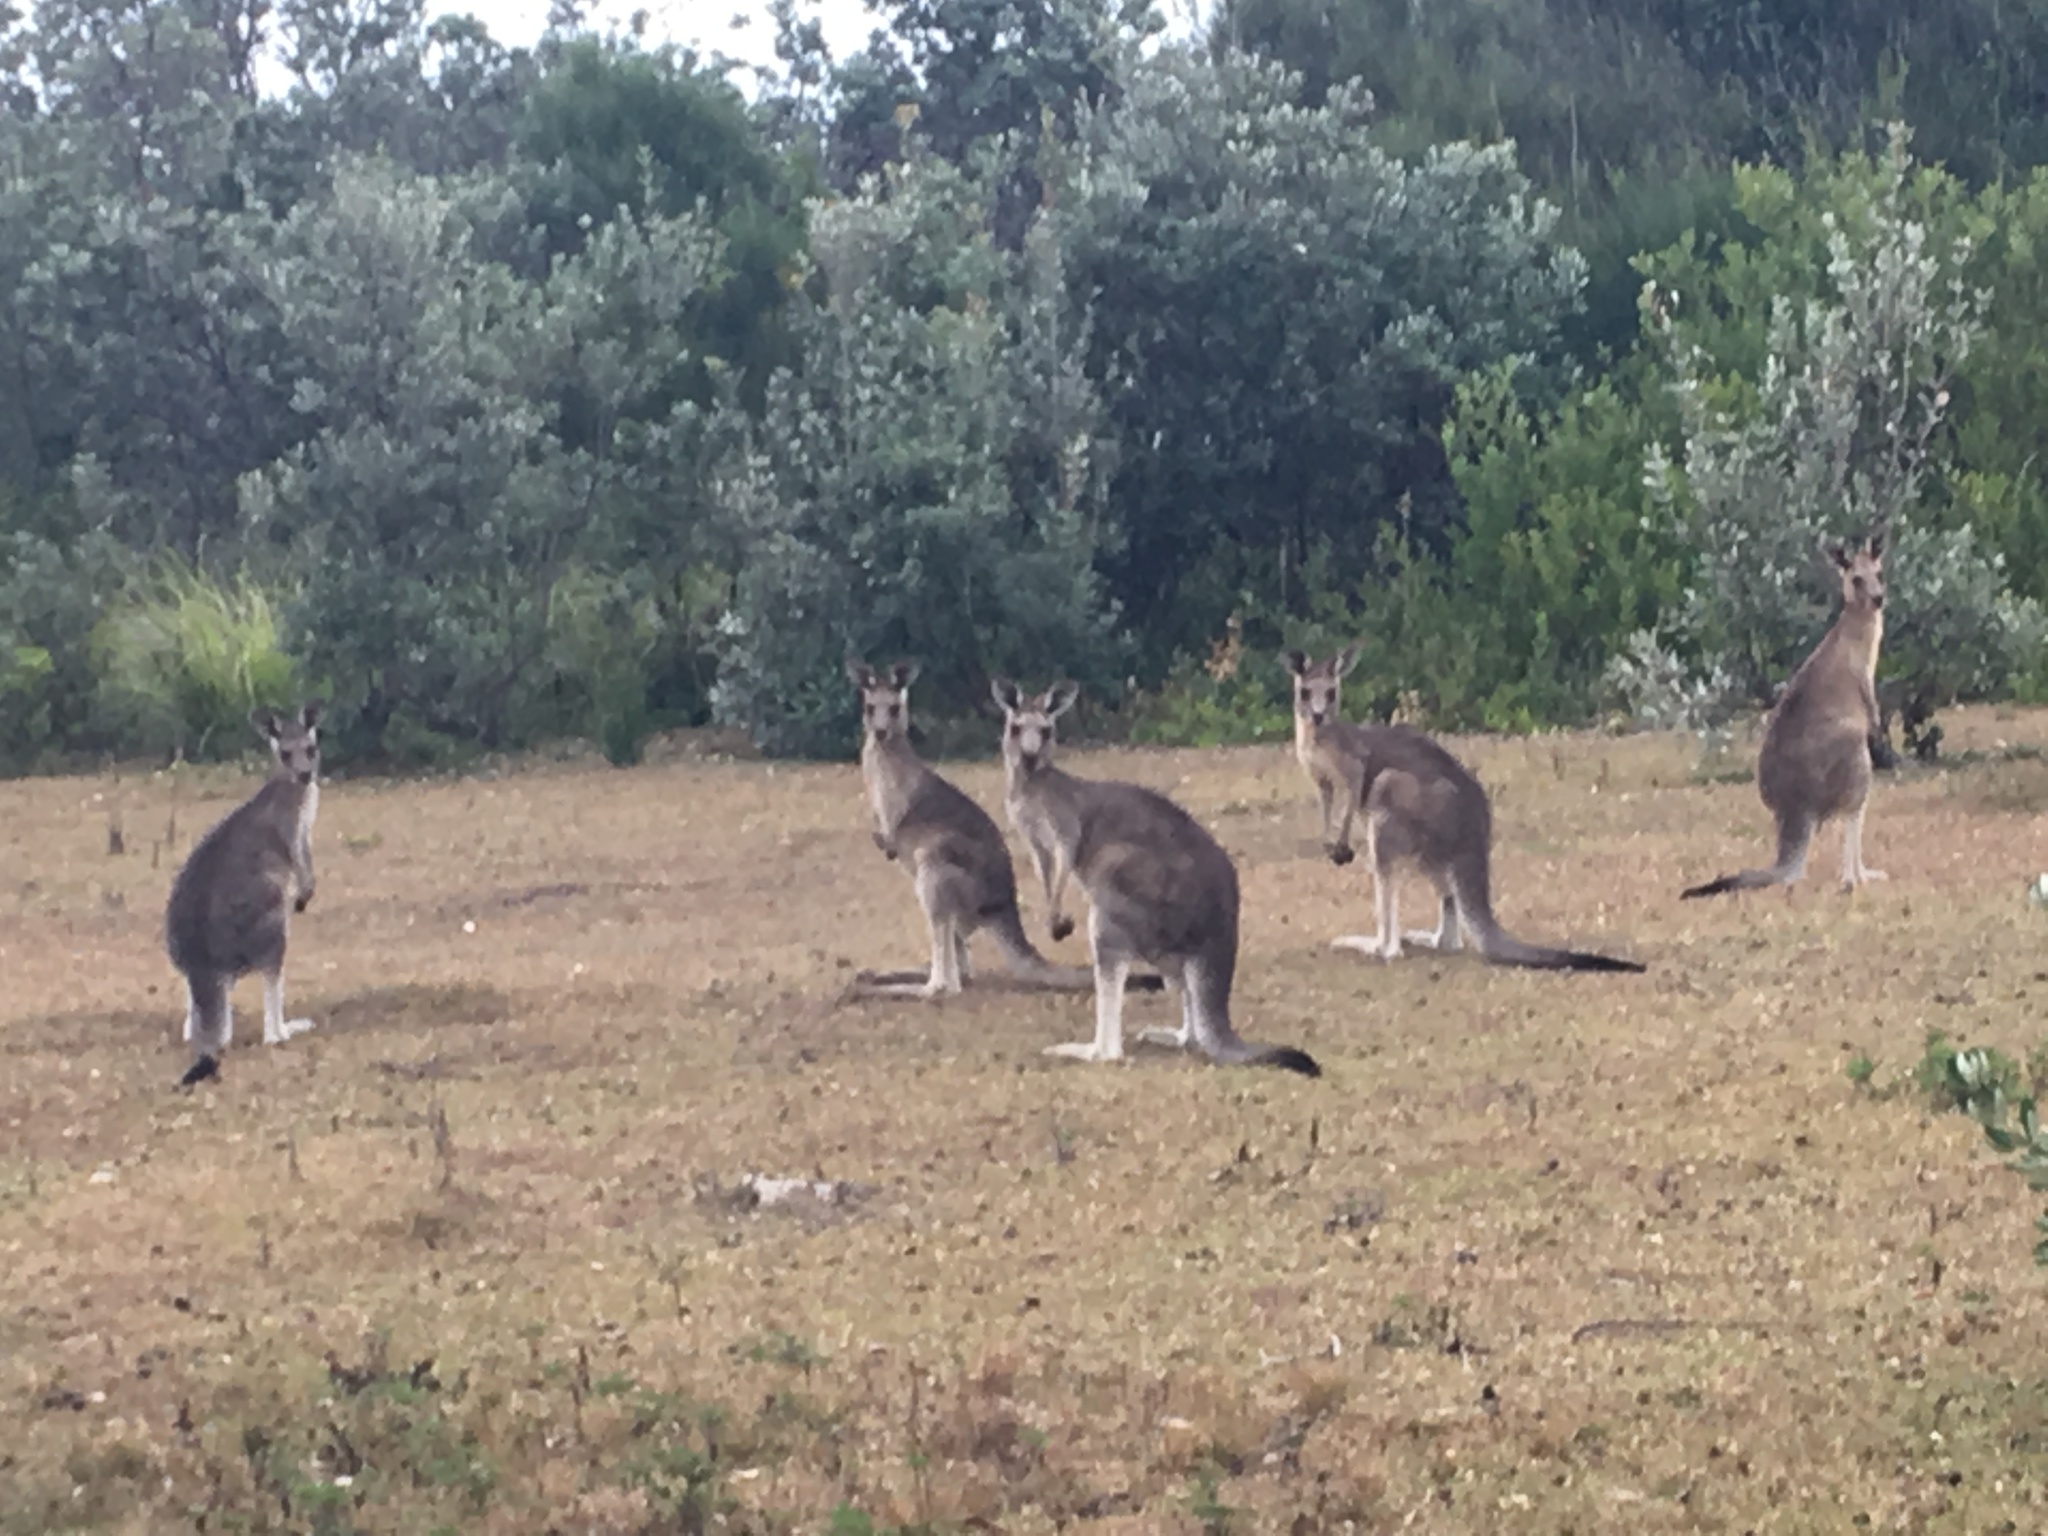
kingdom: Animalia
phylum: Chordata
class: Mammalia
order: Diprotodontia
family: Macropodidae
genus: Macropus
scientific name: Macropus giganteus
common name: Eastern grey kangaroo
